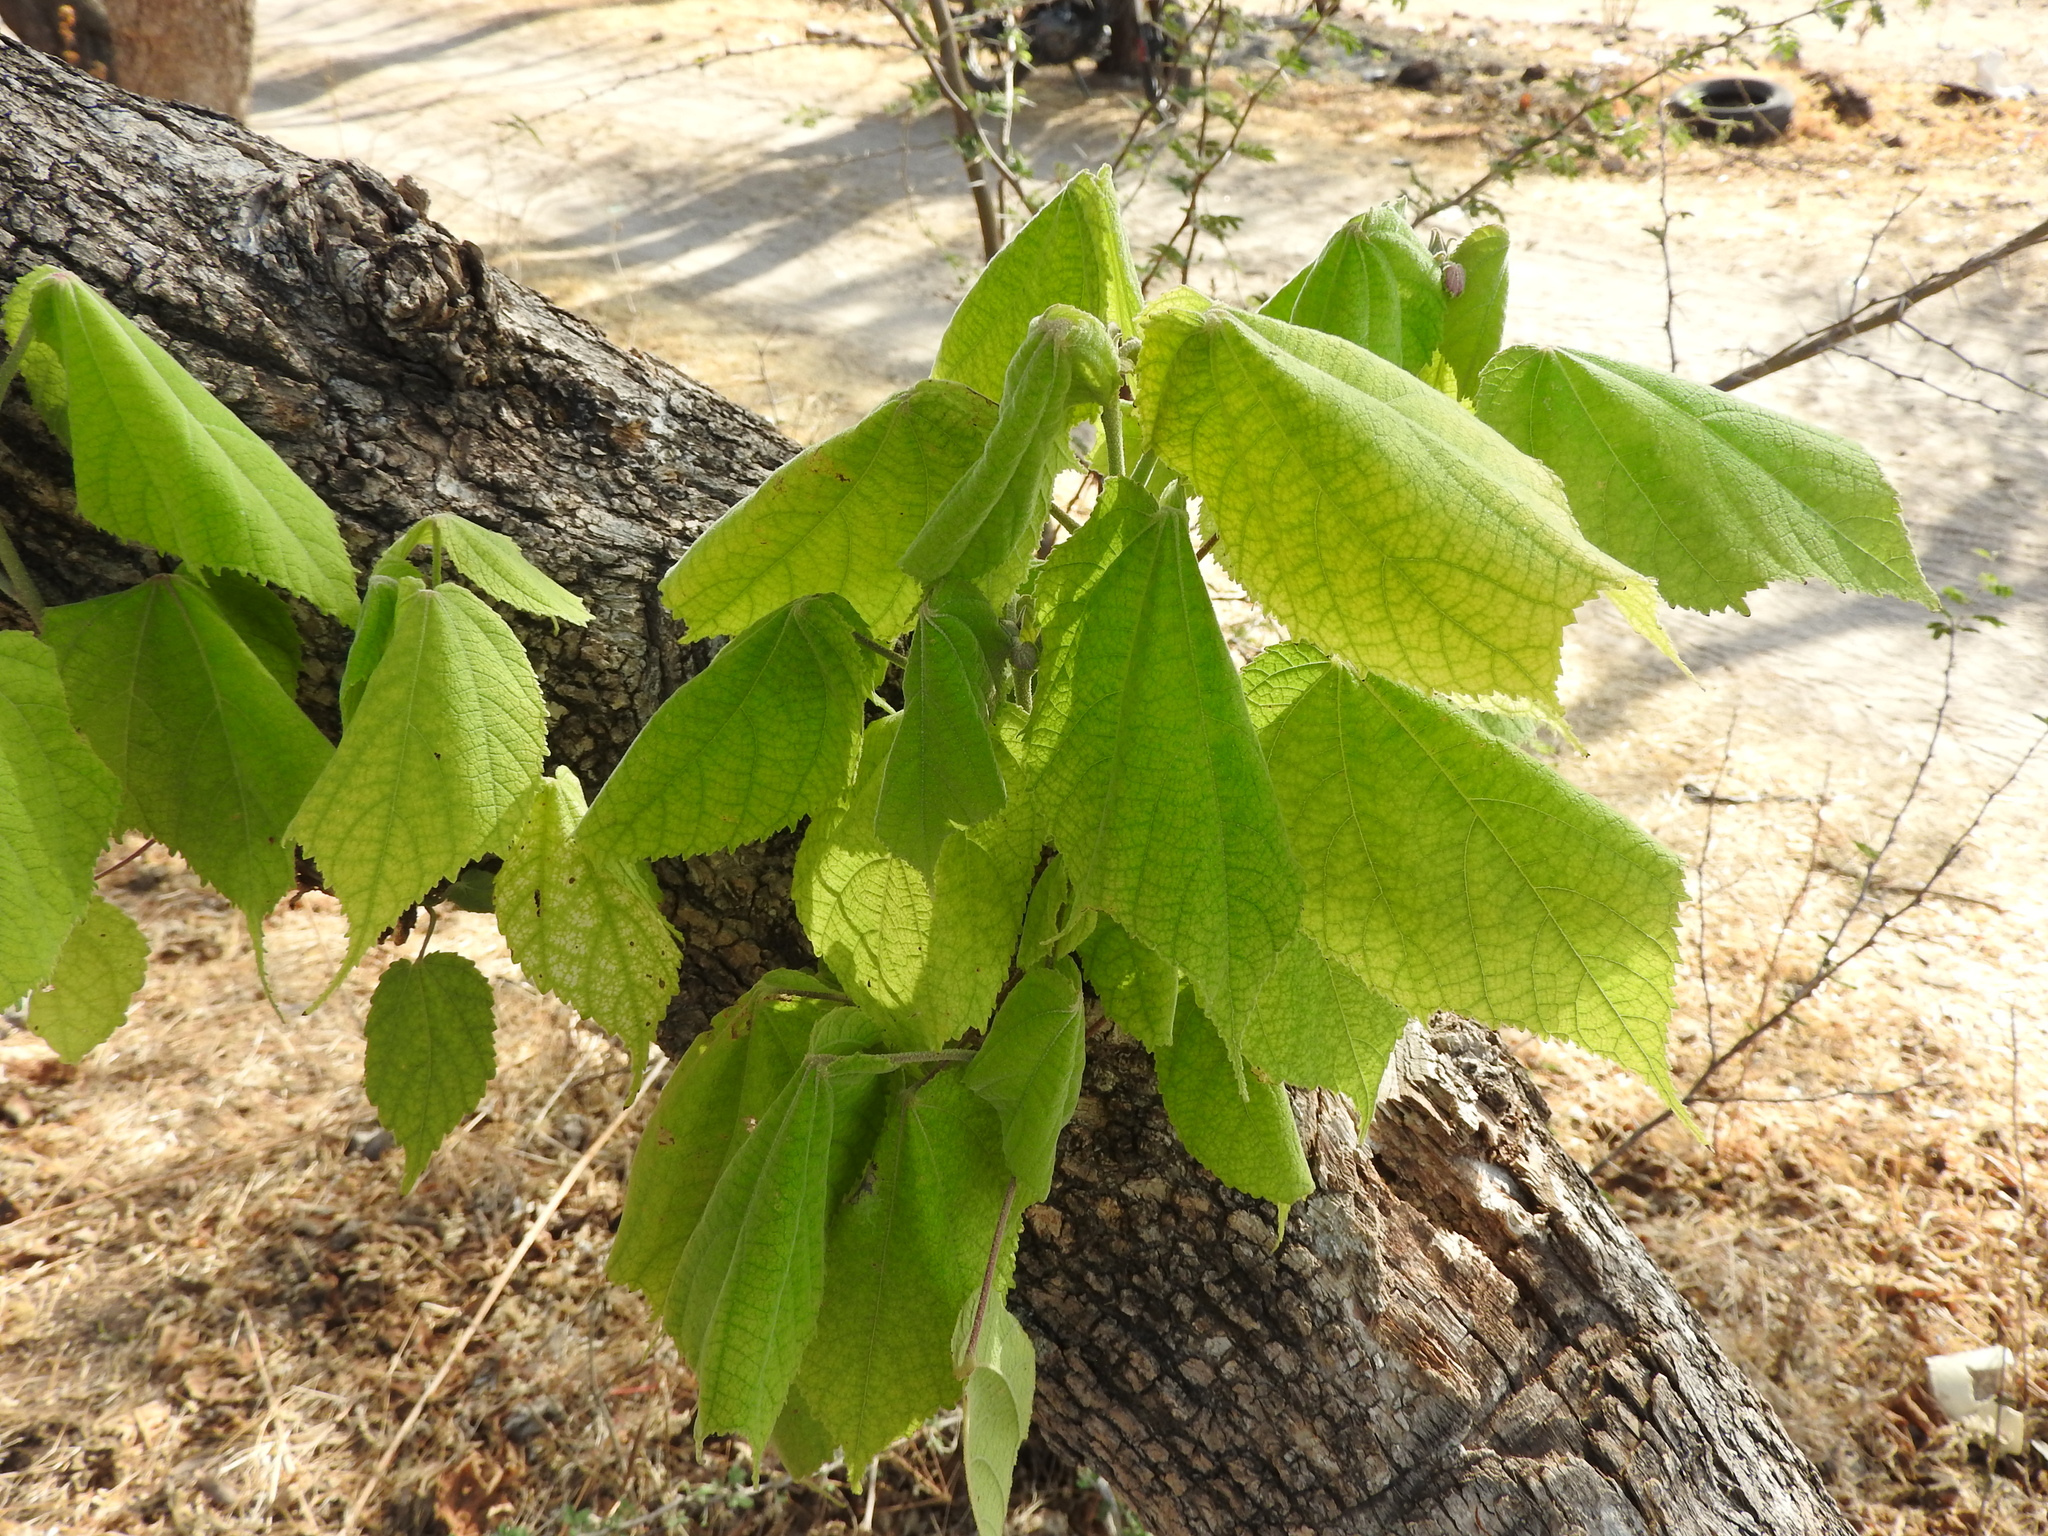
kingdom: Plantae
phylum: Tracheophyta
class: Magnoliopsida
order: Malvales
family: Malvaceae
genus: Heliocarpus
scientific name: Heliocarpus terebinthinaceus
